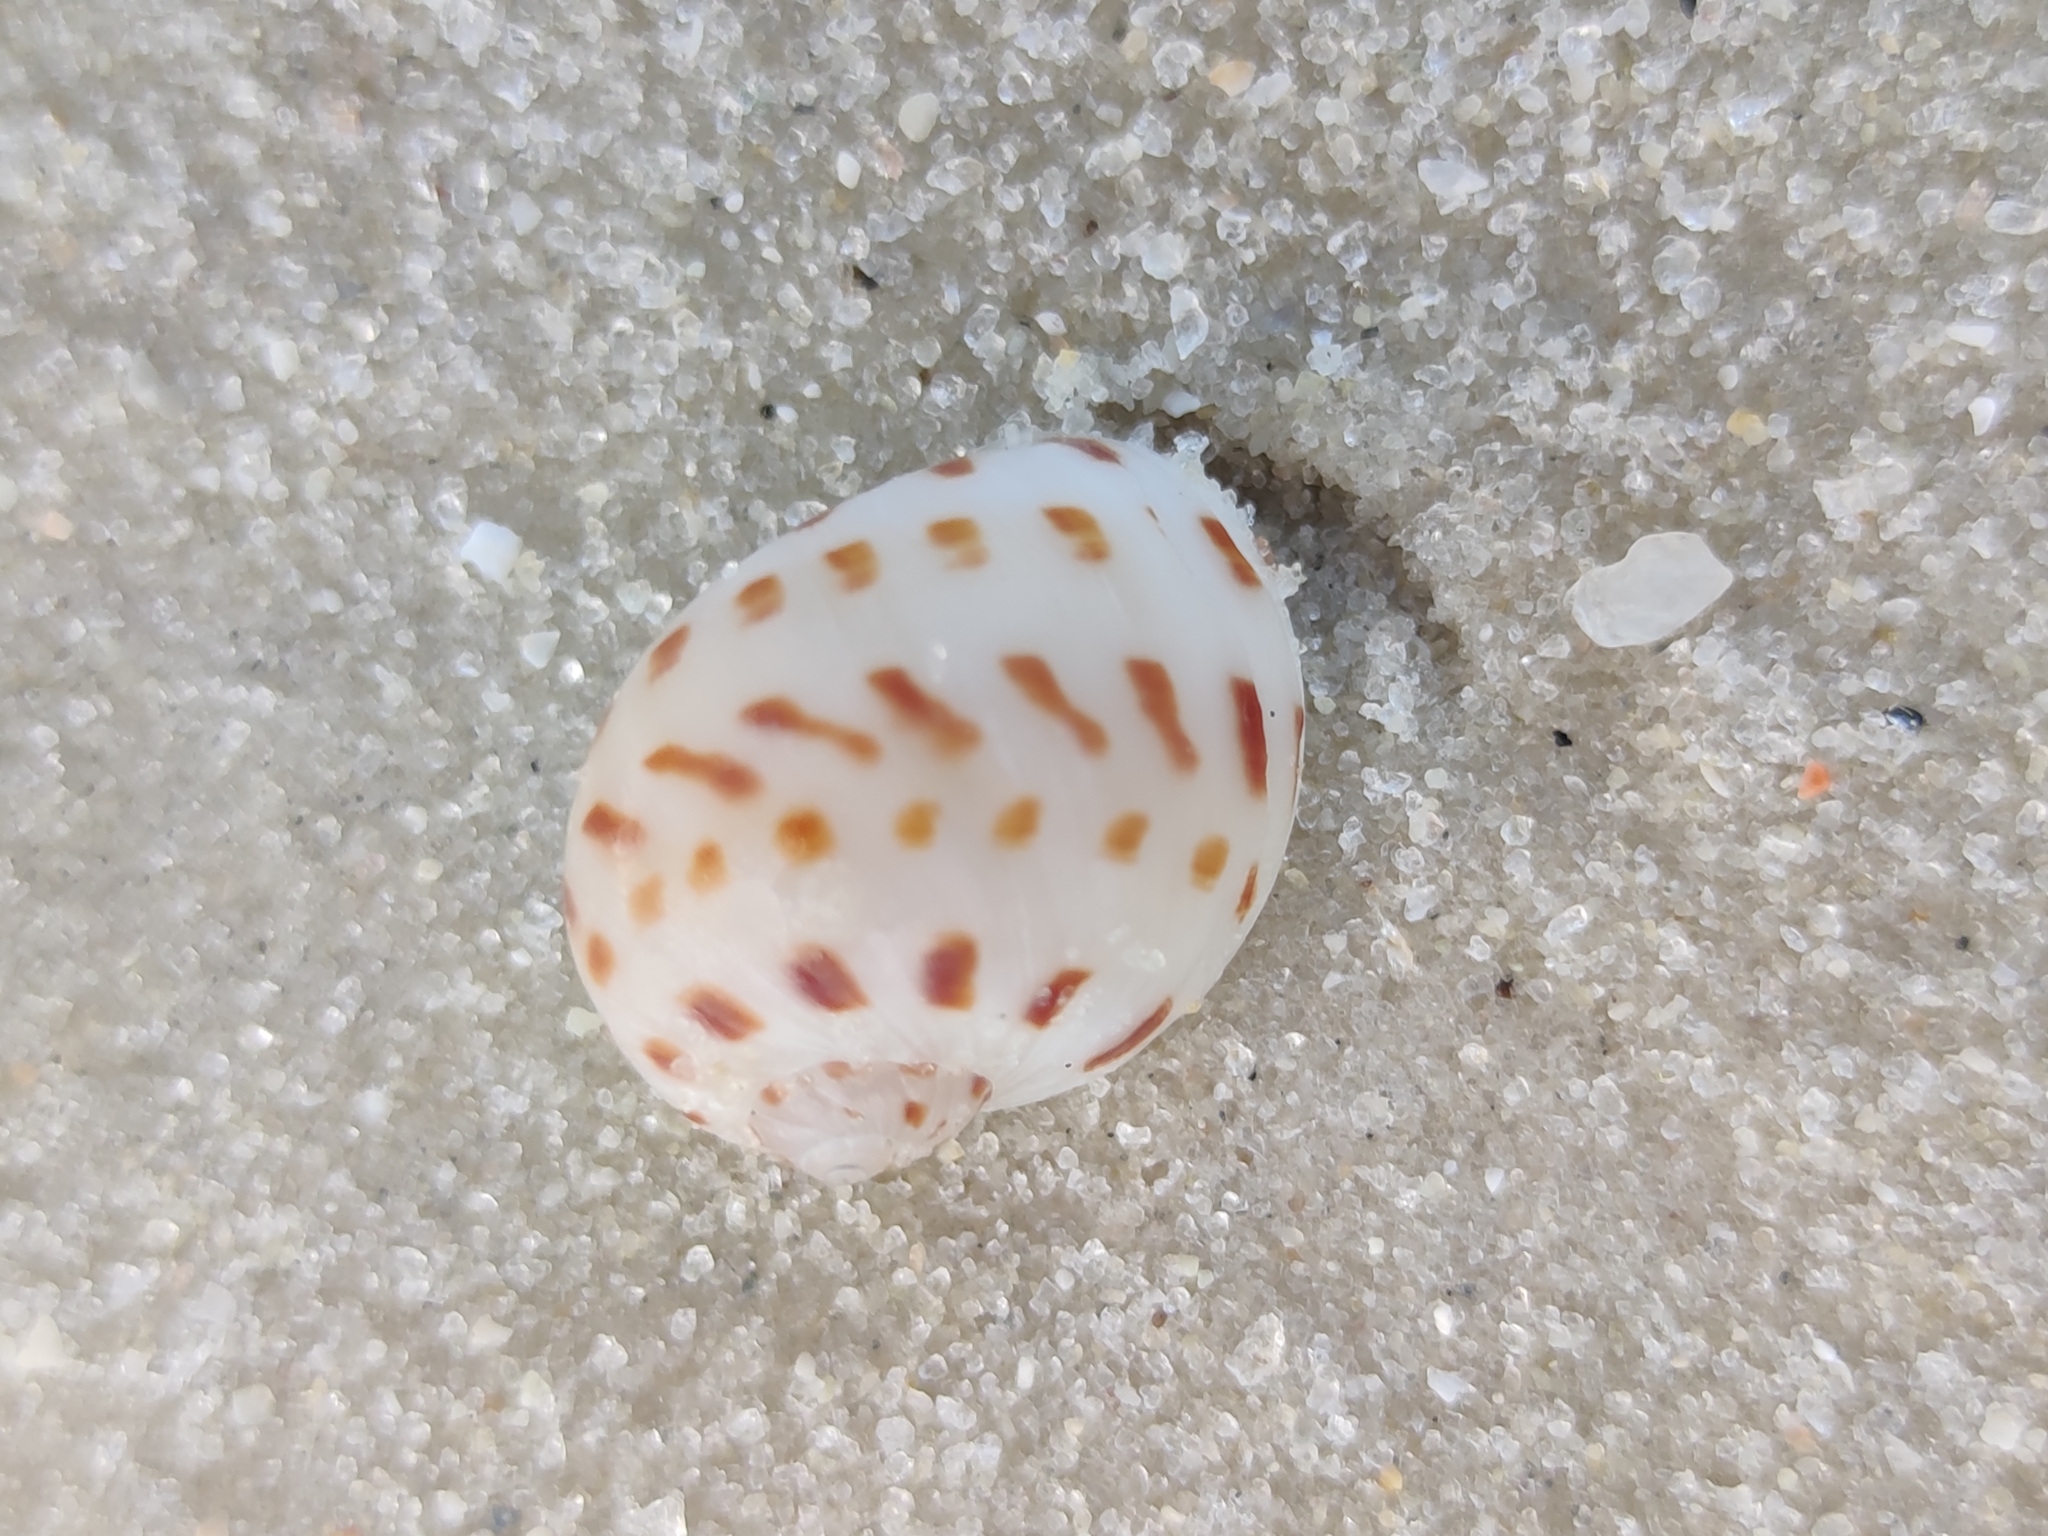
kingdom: Animalia
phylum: Mollusca
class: Gastropoda
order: Littorinimorpha
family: Naticidae
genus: Naticarius
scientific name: Naticarius onca
